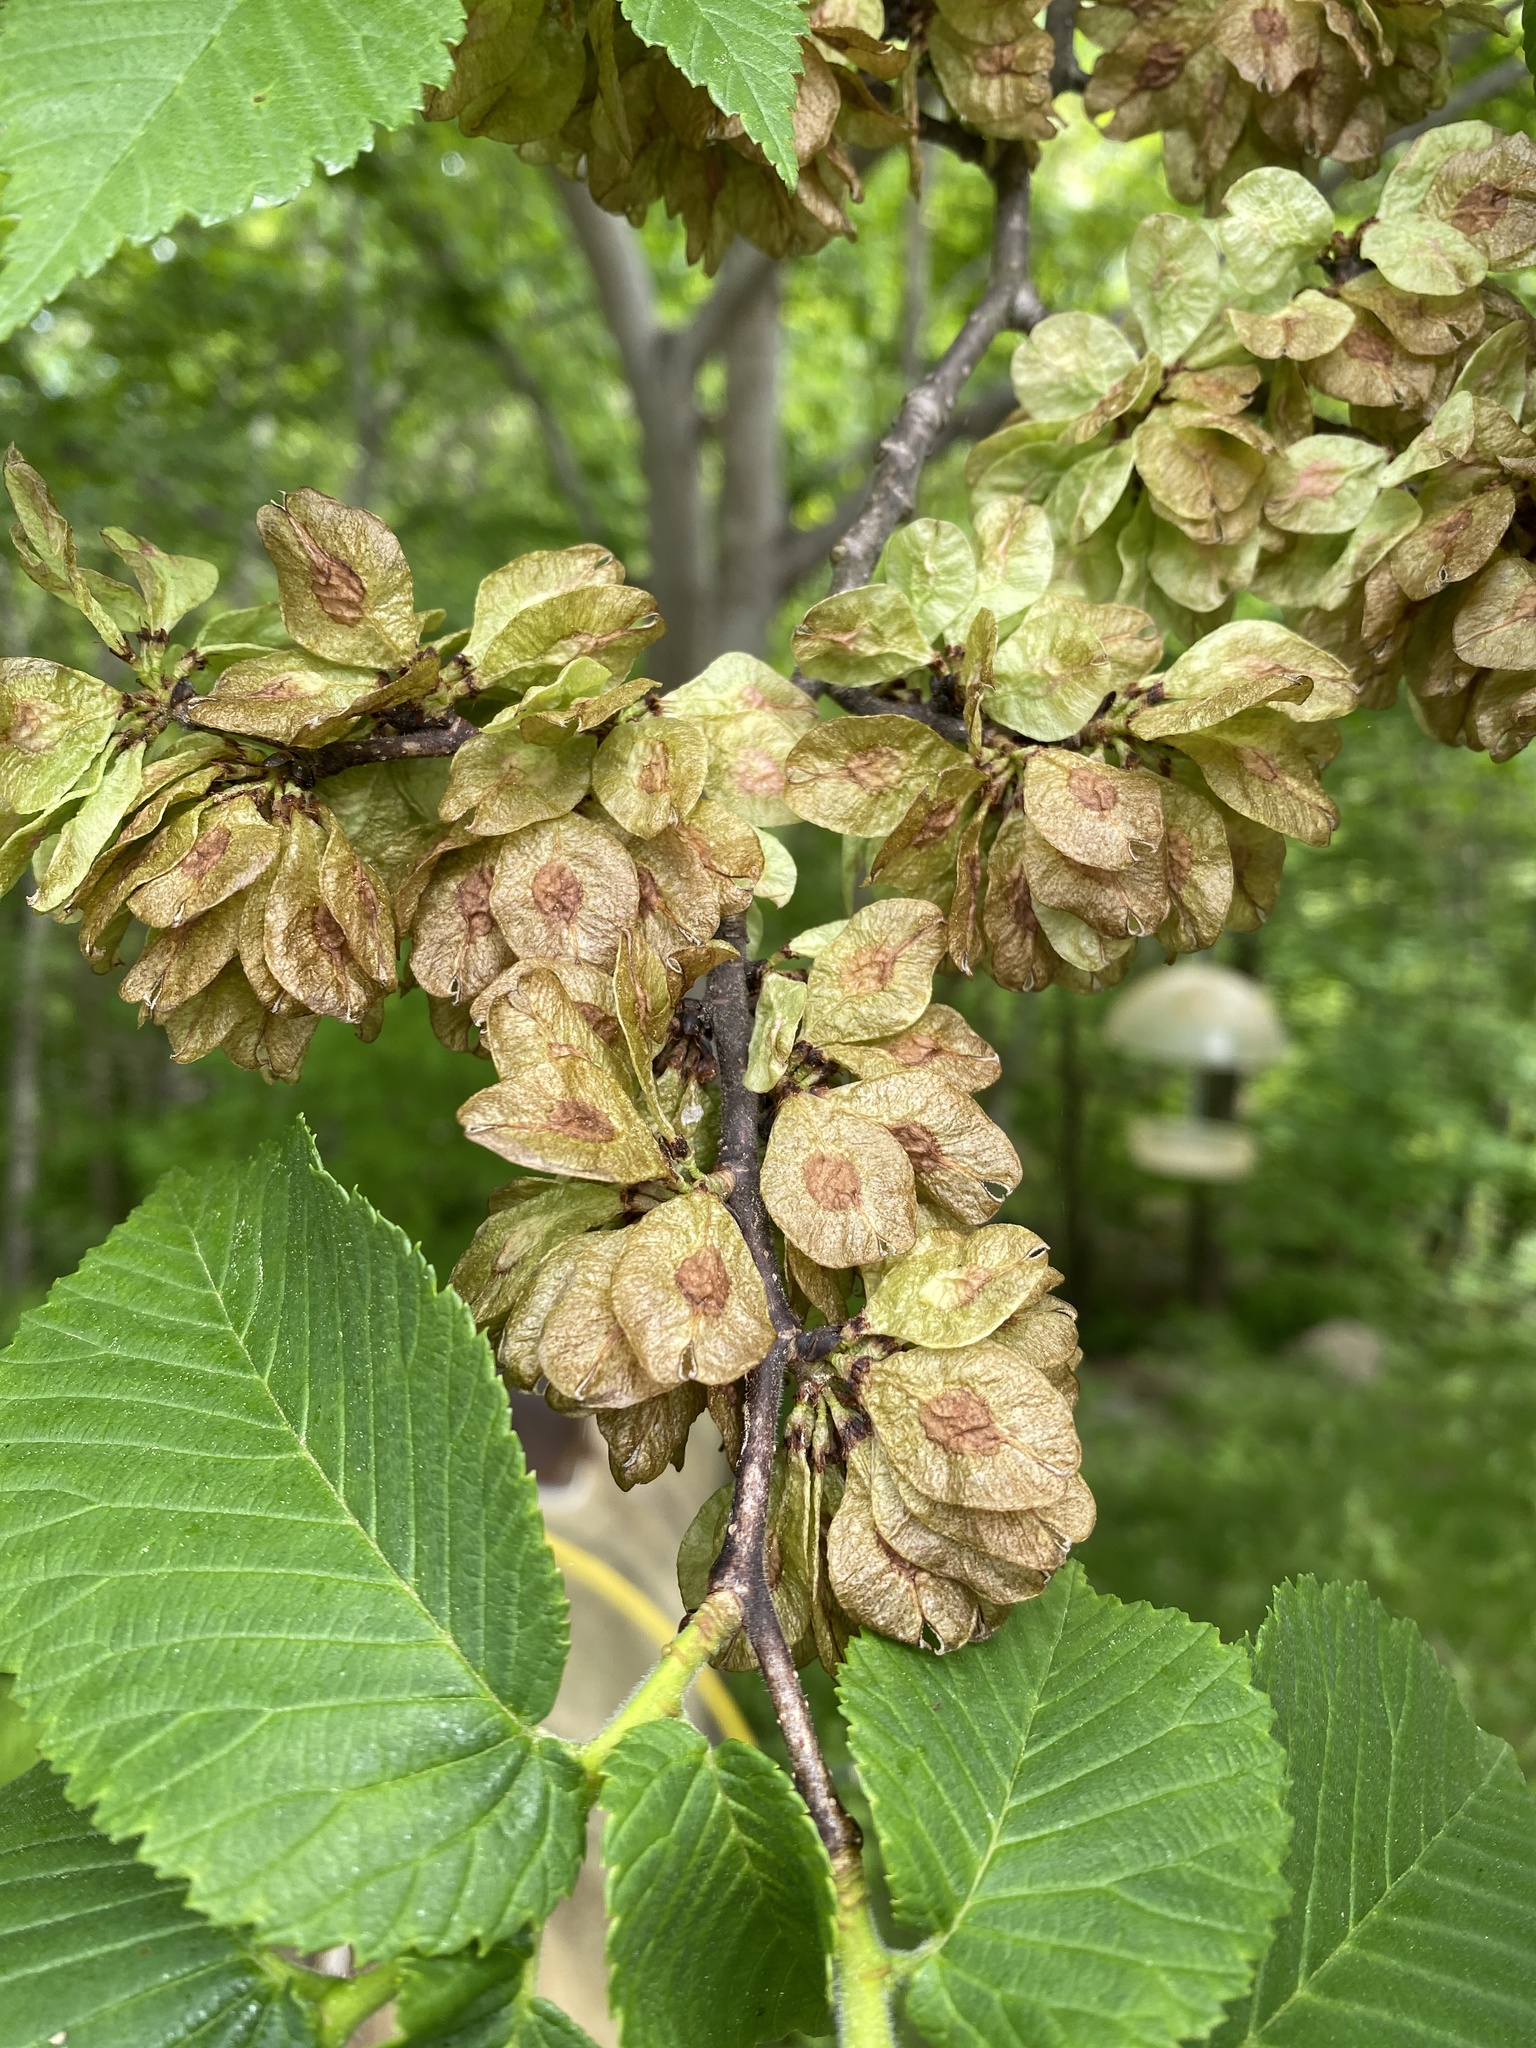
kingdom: Plantae
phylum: Tracheophyta
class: Magnoliopsida
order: Rosales
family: Ulmaceae
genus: Ulmus
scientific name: Ulmus americana
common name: American elm
